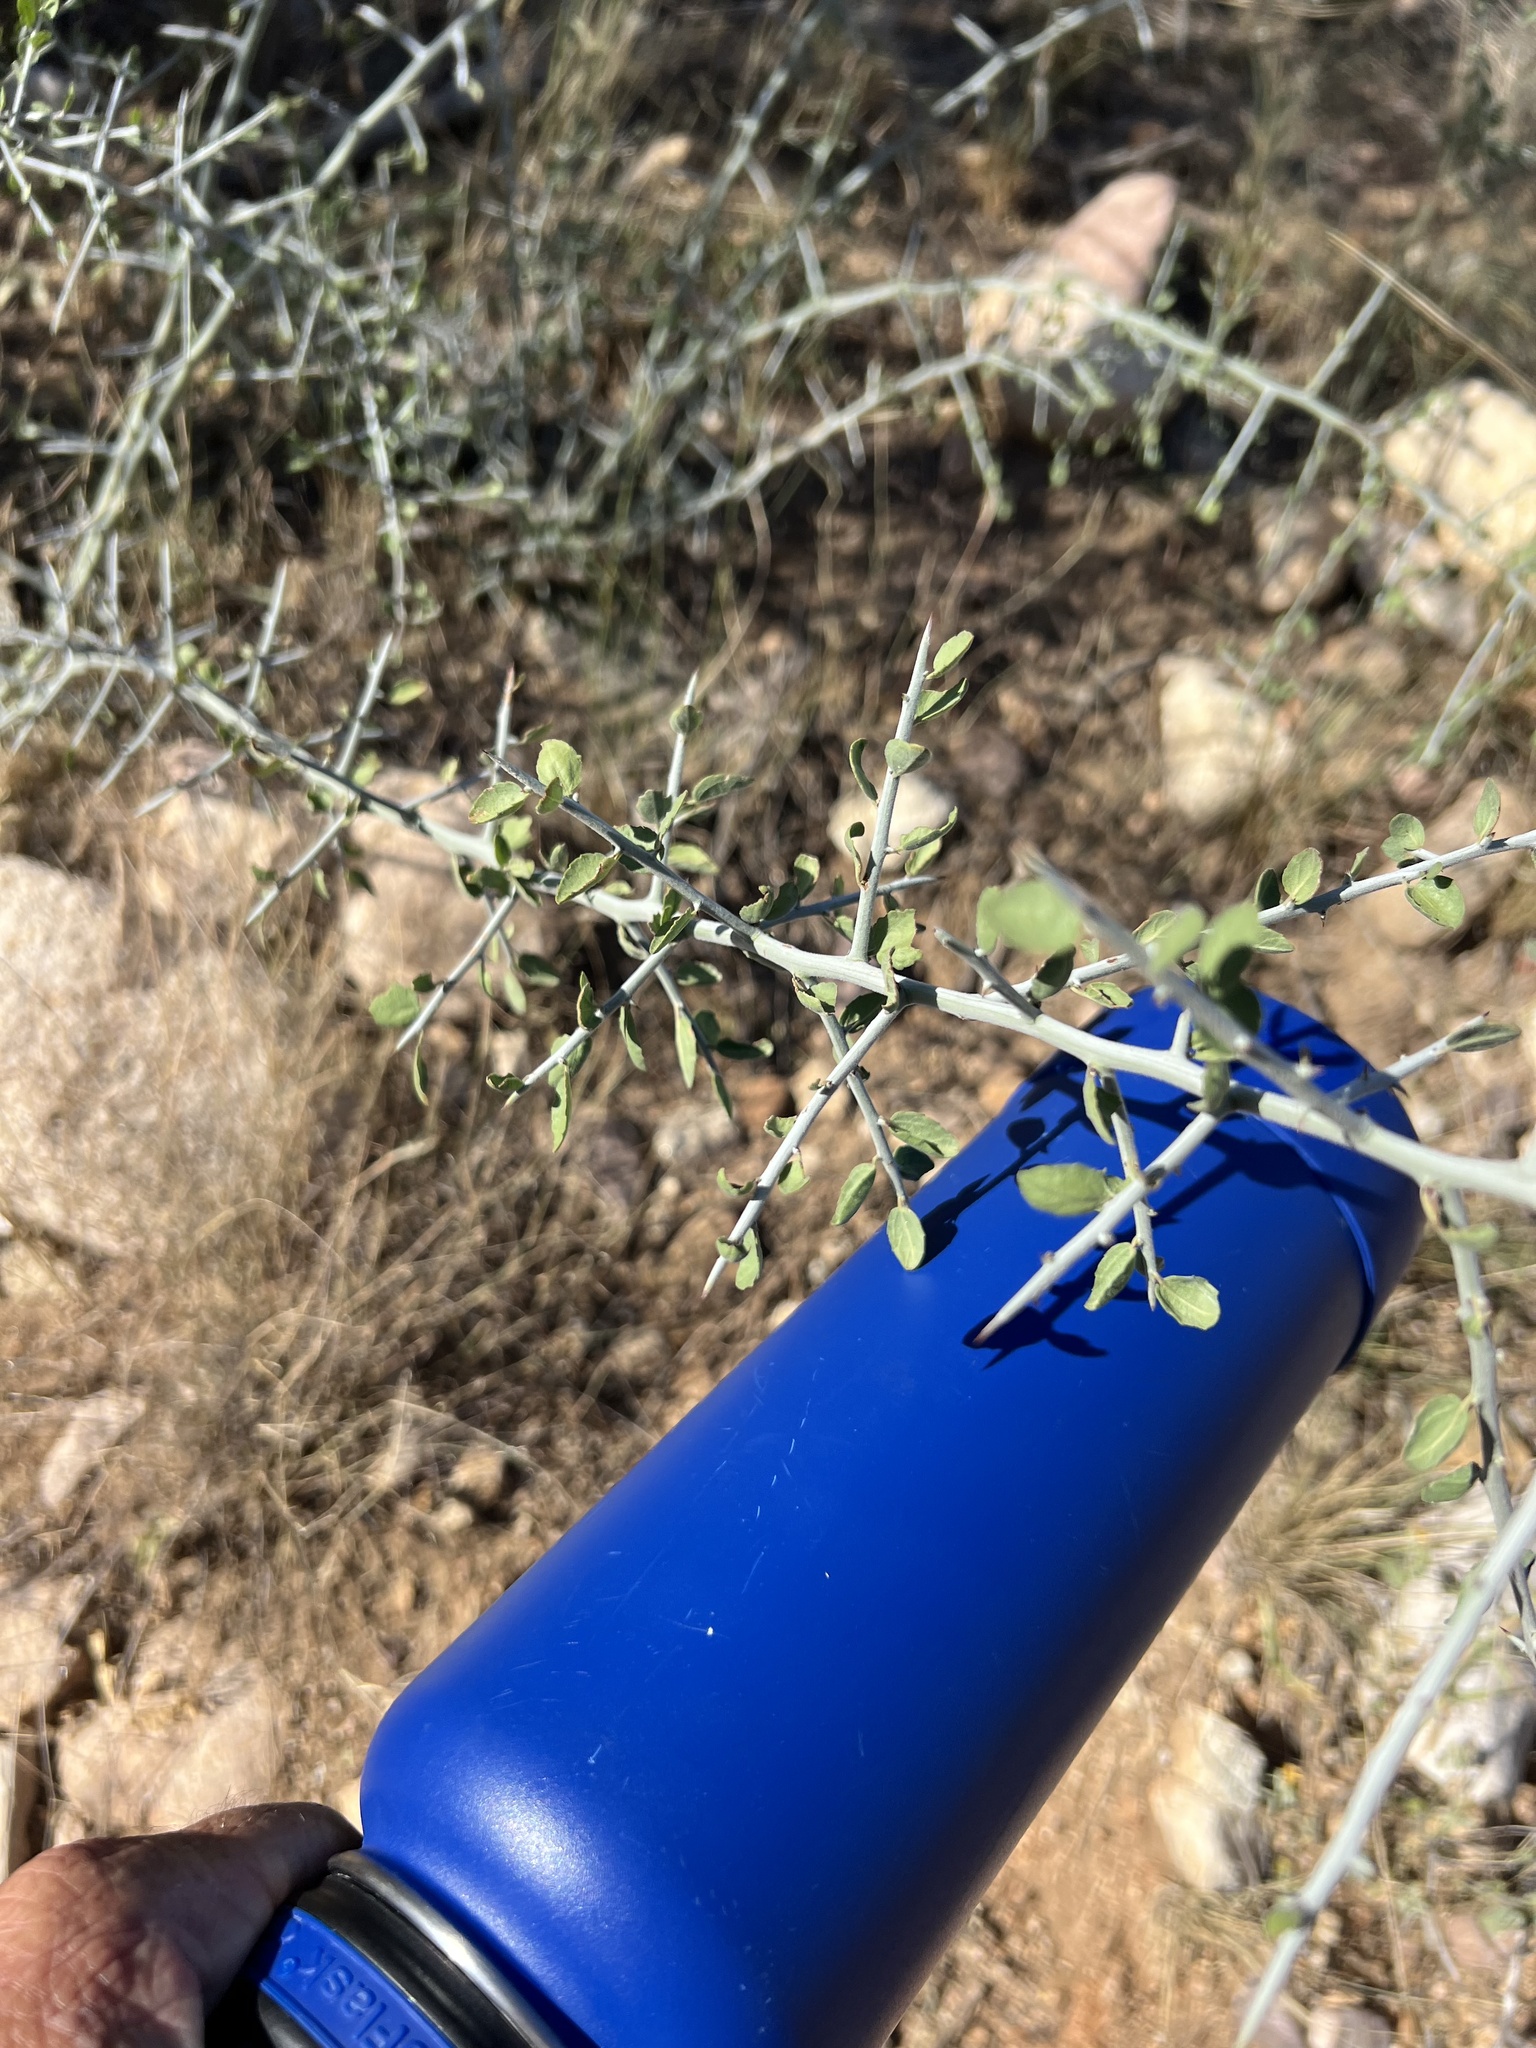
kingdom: Plantae
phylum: Tracheophyta
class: Magnoliopsida
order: Rosales
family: Rhamnaceae
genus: Sarcomphalus
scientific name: Sarcomphalus obtusifolius
